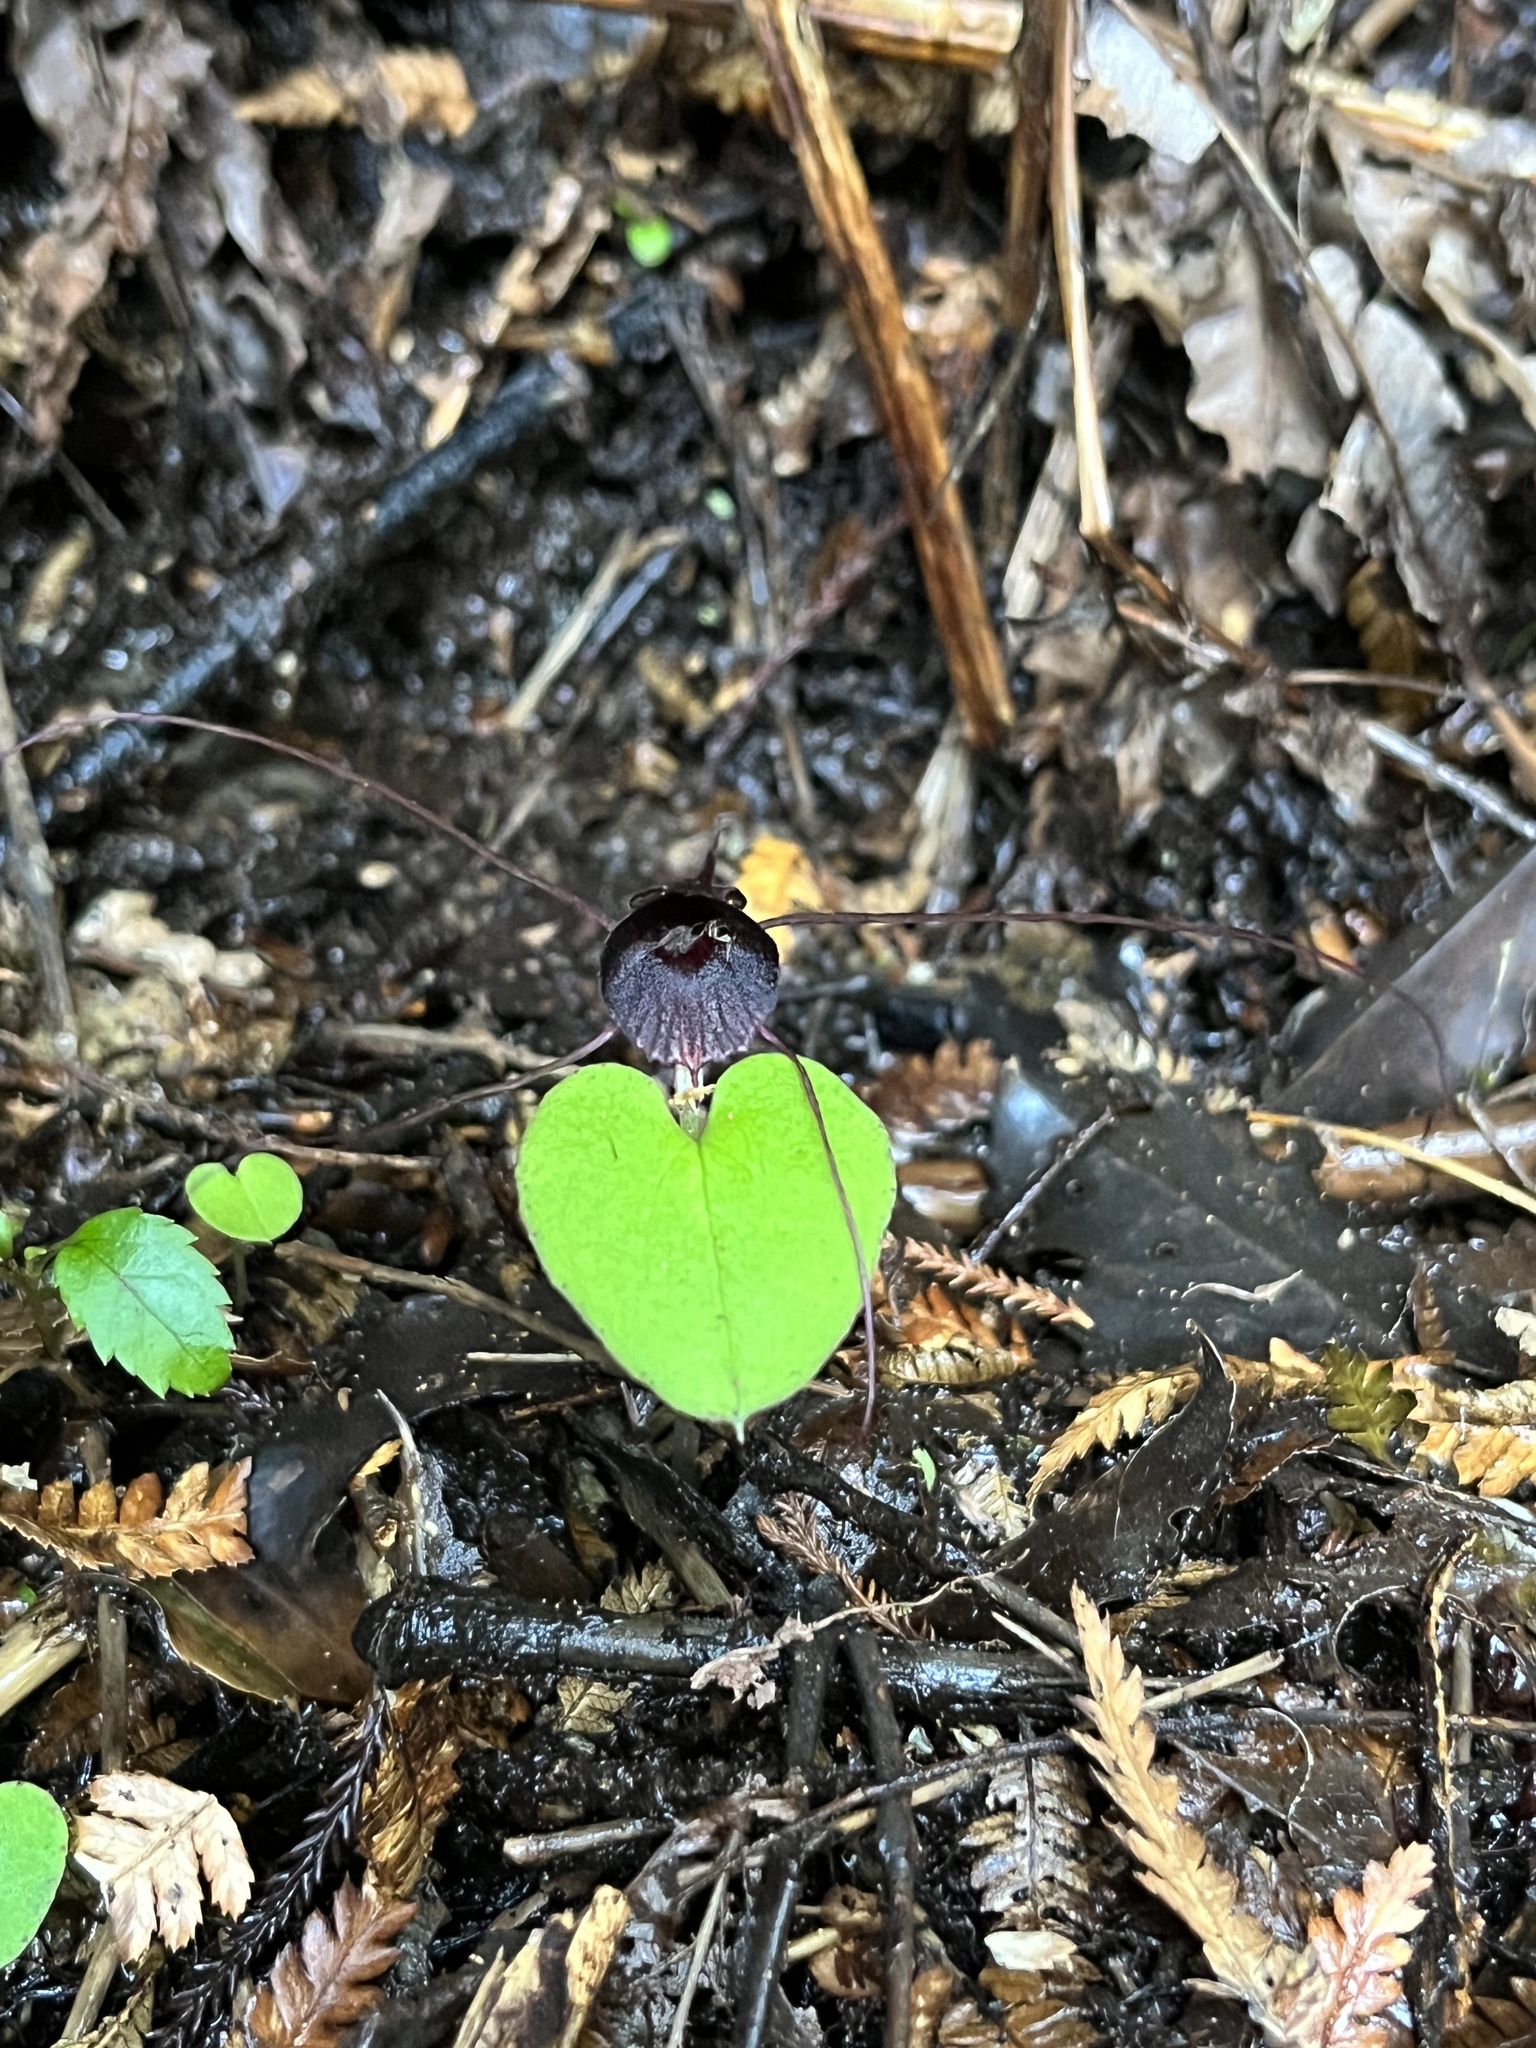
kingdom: Plantae
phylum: Tracheophyta
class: Liliopsida
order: Asparagales
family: Orchidaceae
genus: Corybas
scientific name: Corybas iridescens
